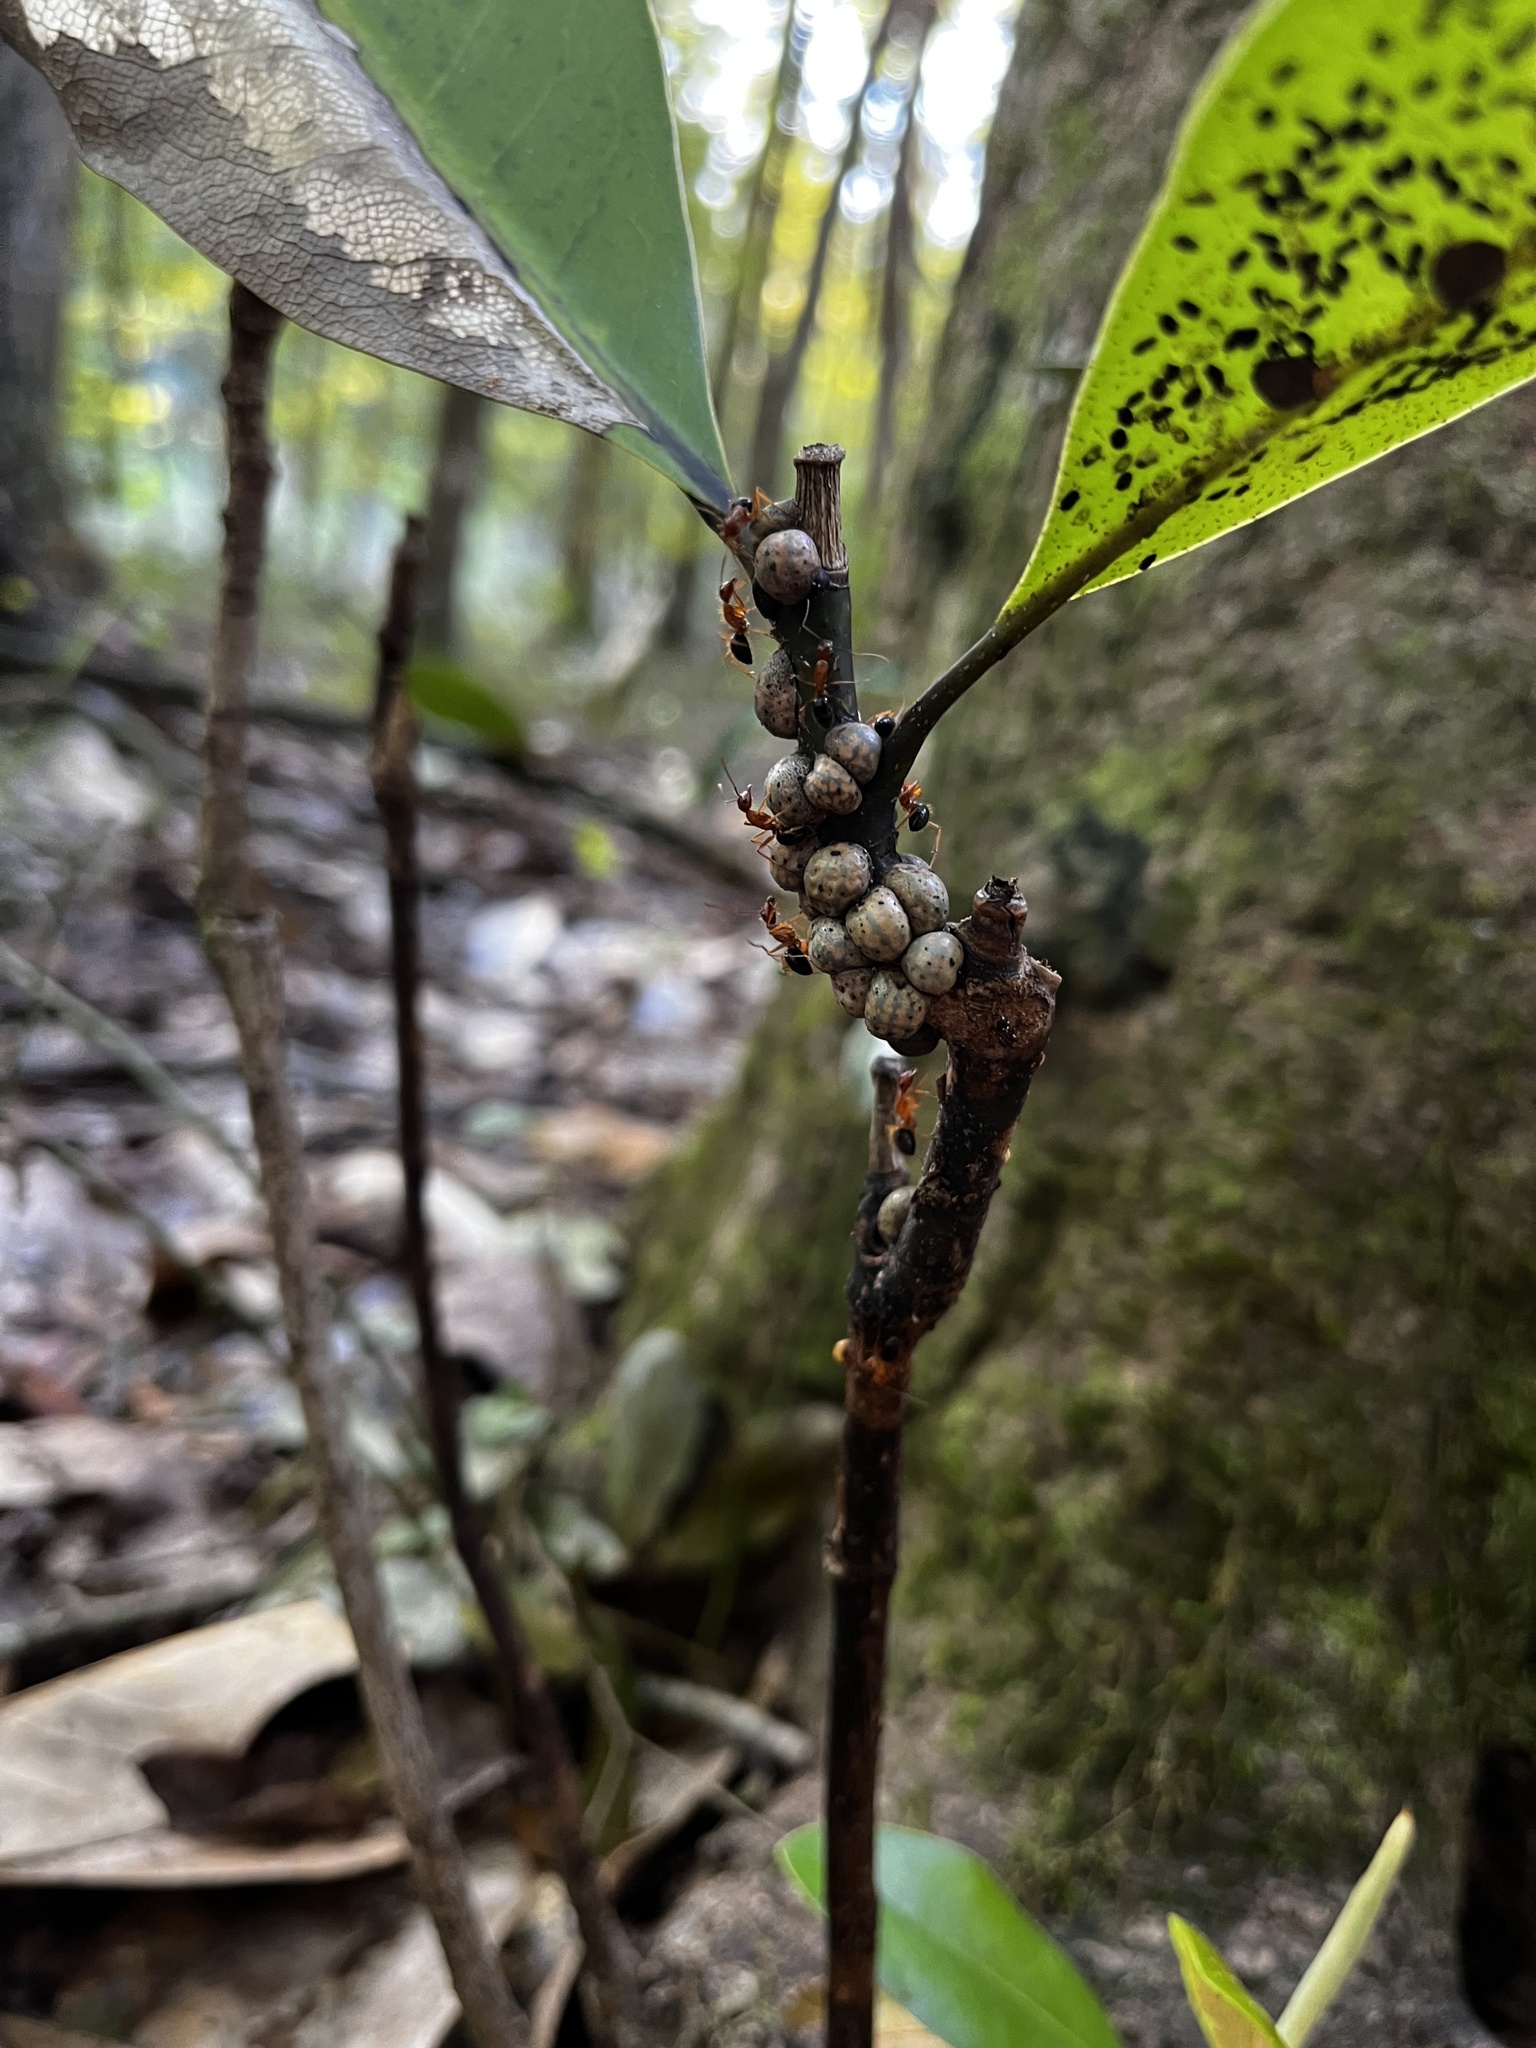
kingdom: Animalia
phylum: Arthropoda
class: Insecta
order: Hymenoptera
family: Formicidae
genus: Camponotus
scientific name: Camponotus floridanus
